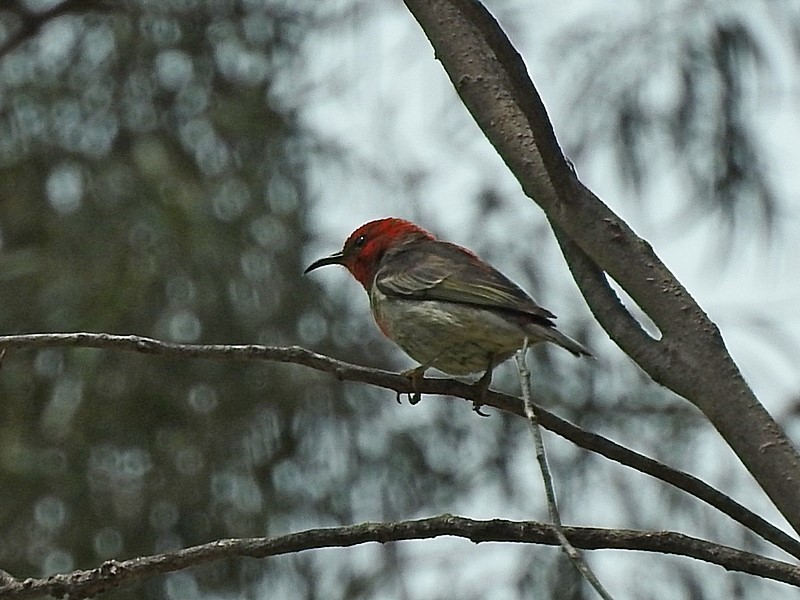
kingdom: Animalia
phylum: Chordata
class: Aves
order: Passeriformes
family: Meliphagidae
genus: Myzomela
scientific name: Myzomela sanguinolenta
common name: Scarlet myzomela
